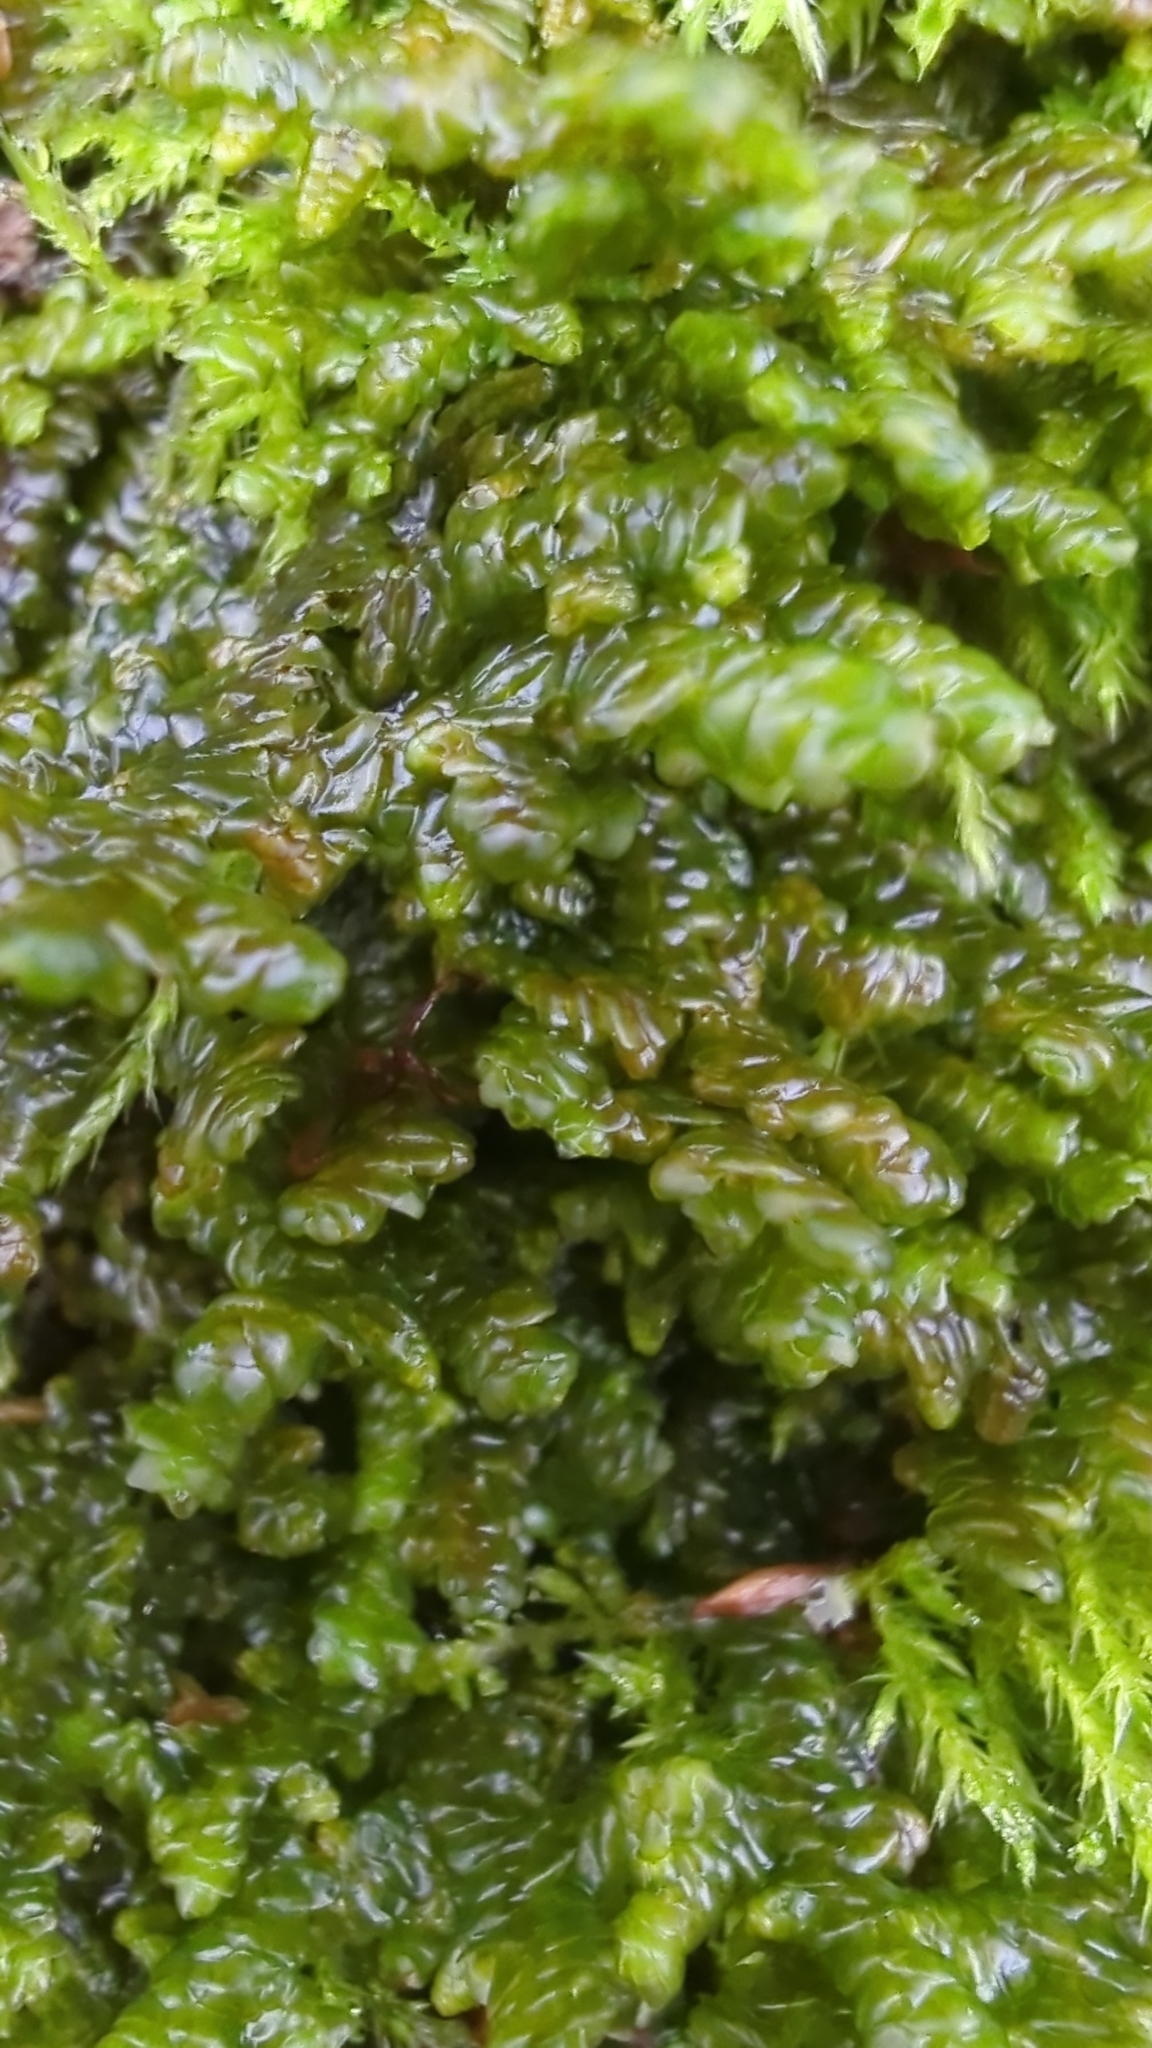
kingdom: Plantae
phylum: Marchantiophyta
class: Jungermanniopsida
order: Porellales
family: Porellaceae
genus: Porella
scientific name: Porella navicularis
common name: Tree ruffle liverwort
